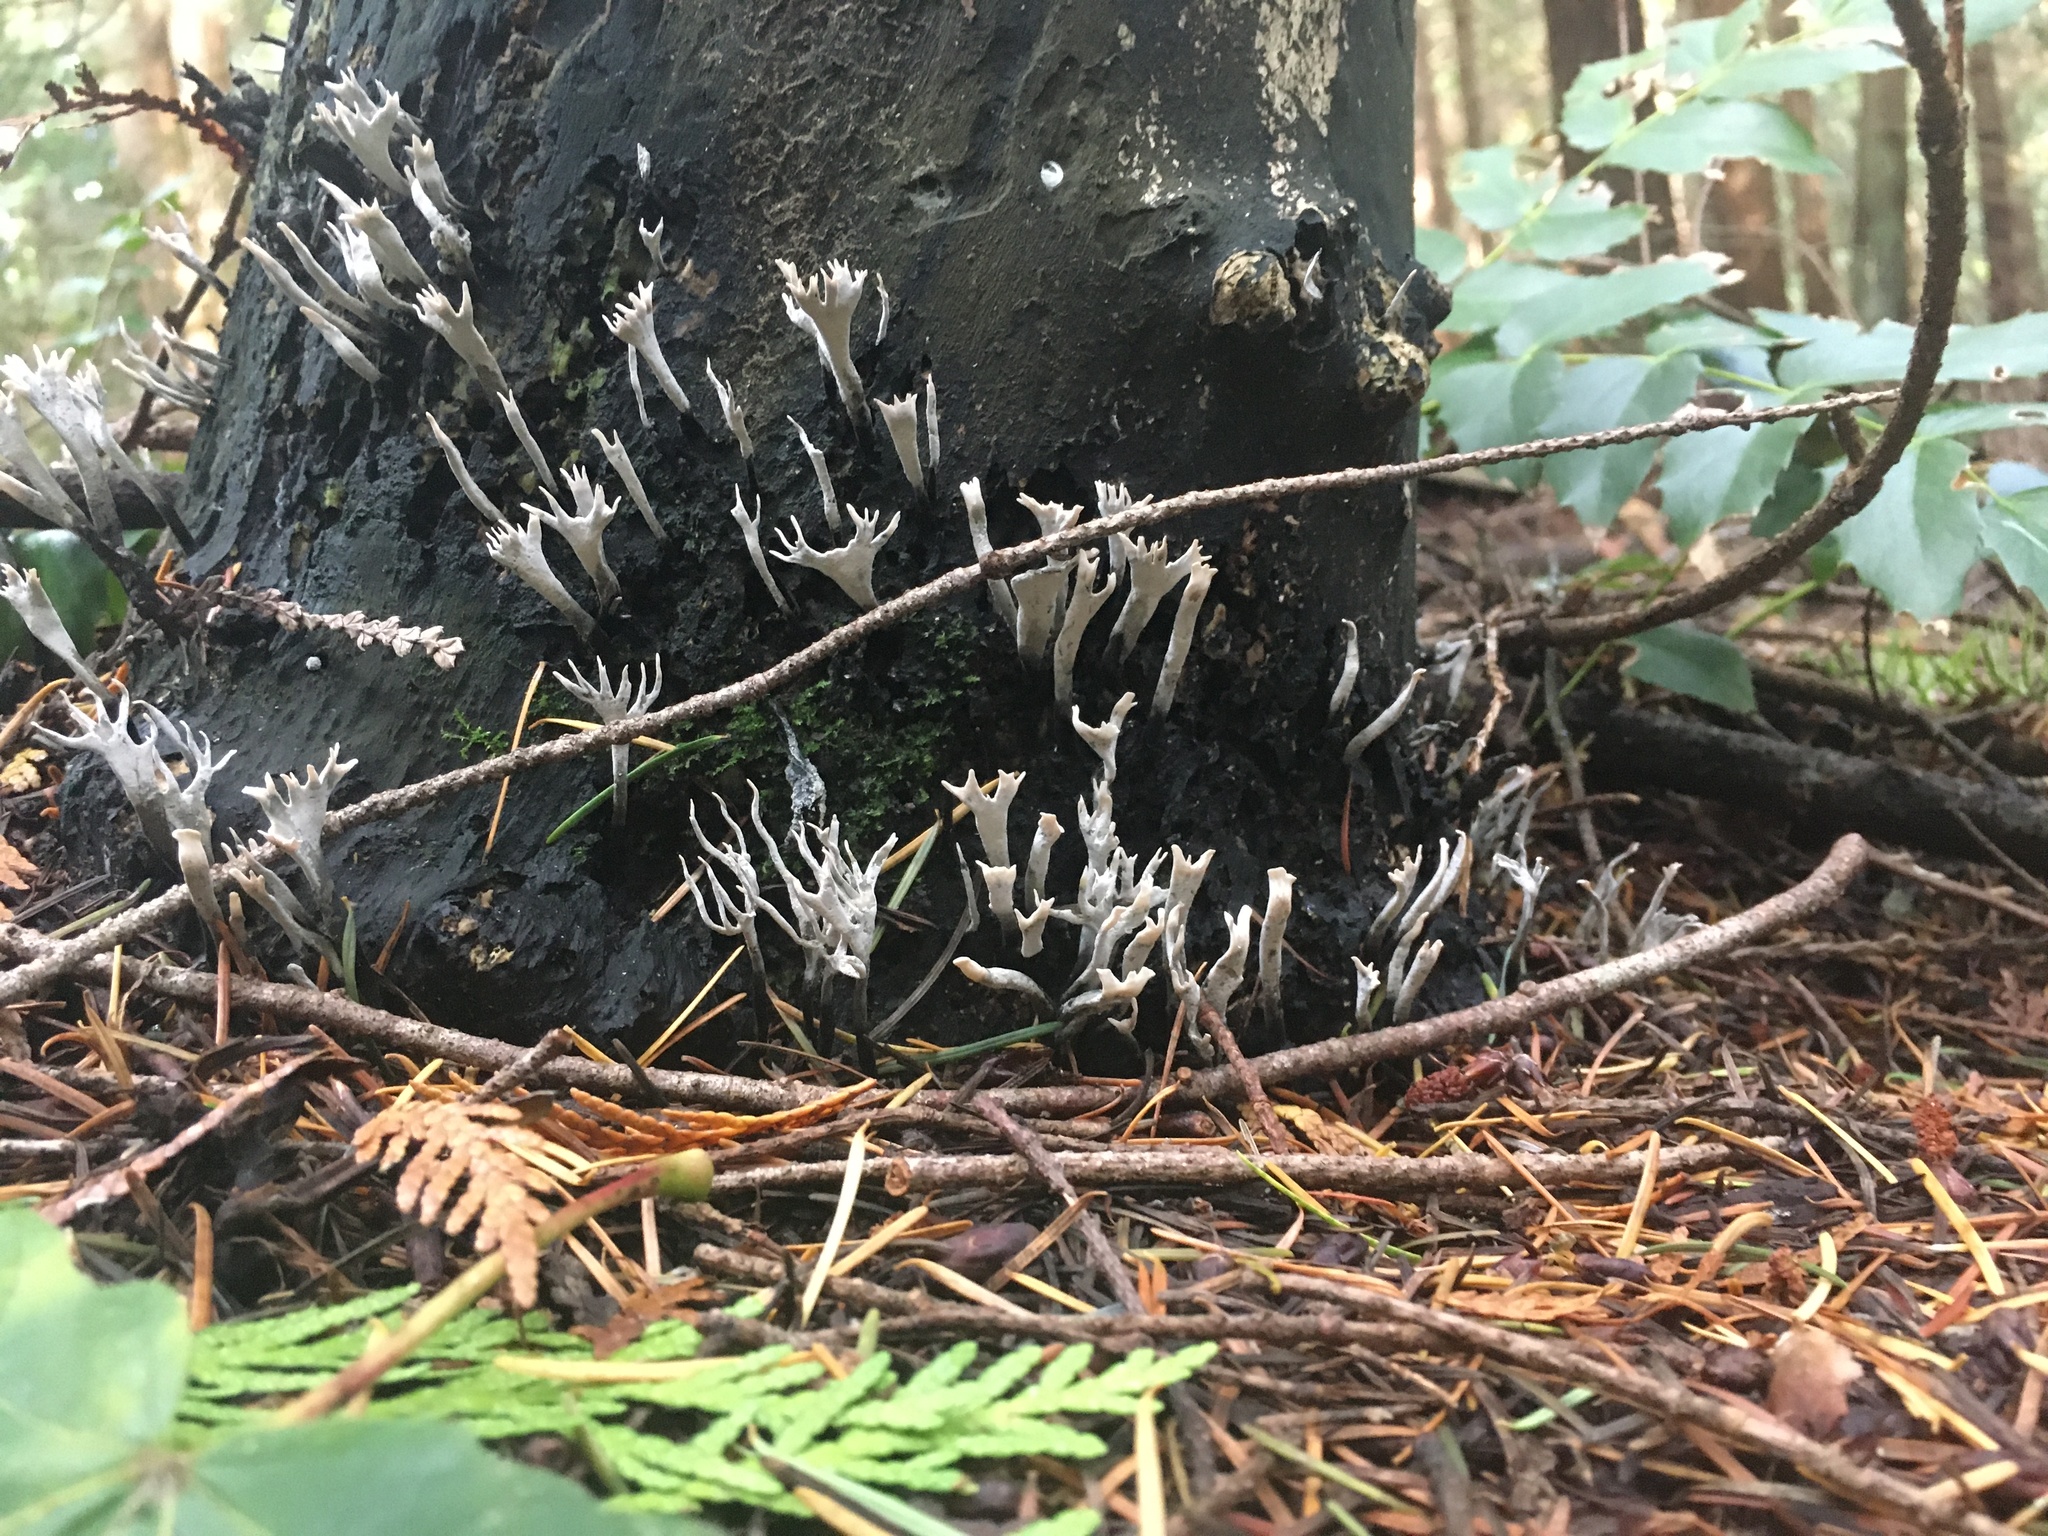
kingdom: Fungi
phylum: Ascomycota
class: Sordariomycetes
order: Xylariales
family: Xylariaceae
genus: Xylaria
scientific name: Xylaria hypoxylon
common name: Candle-snuff fungus
